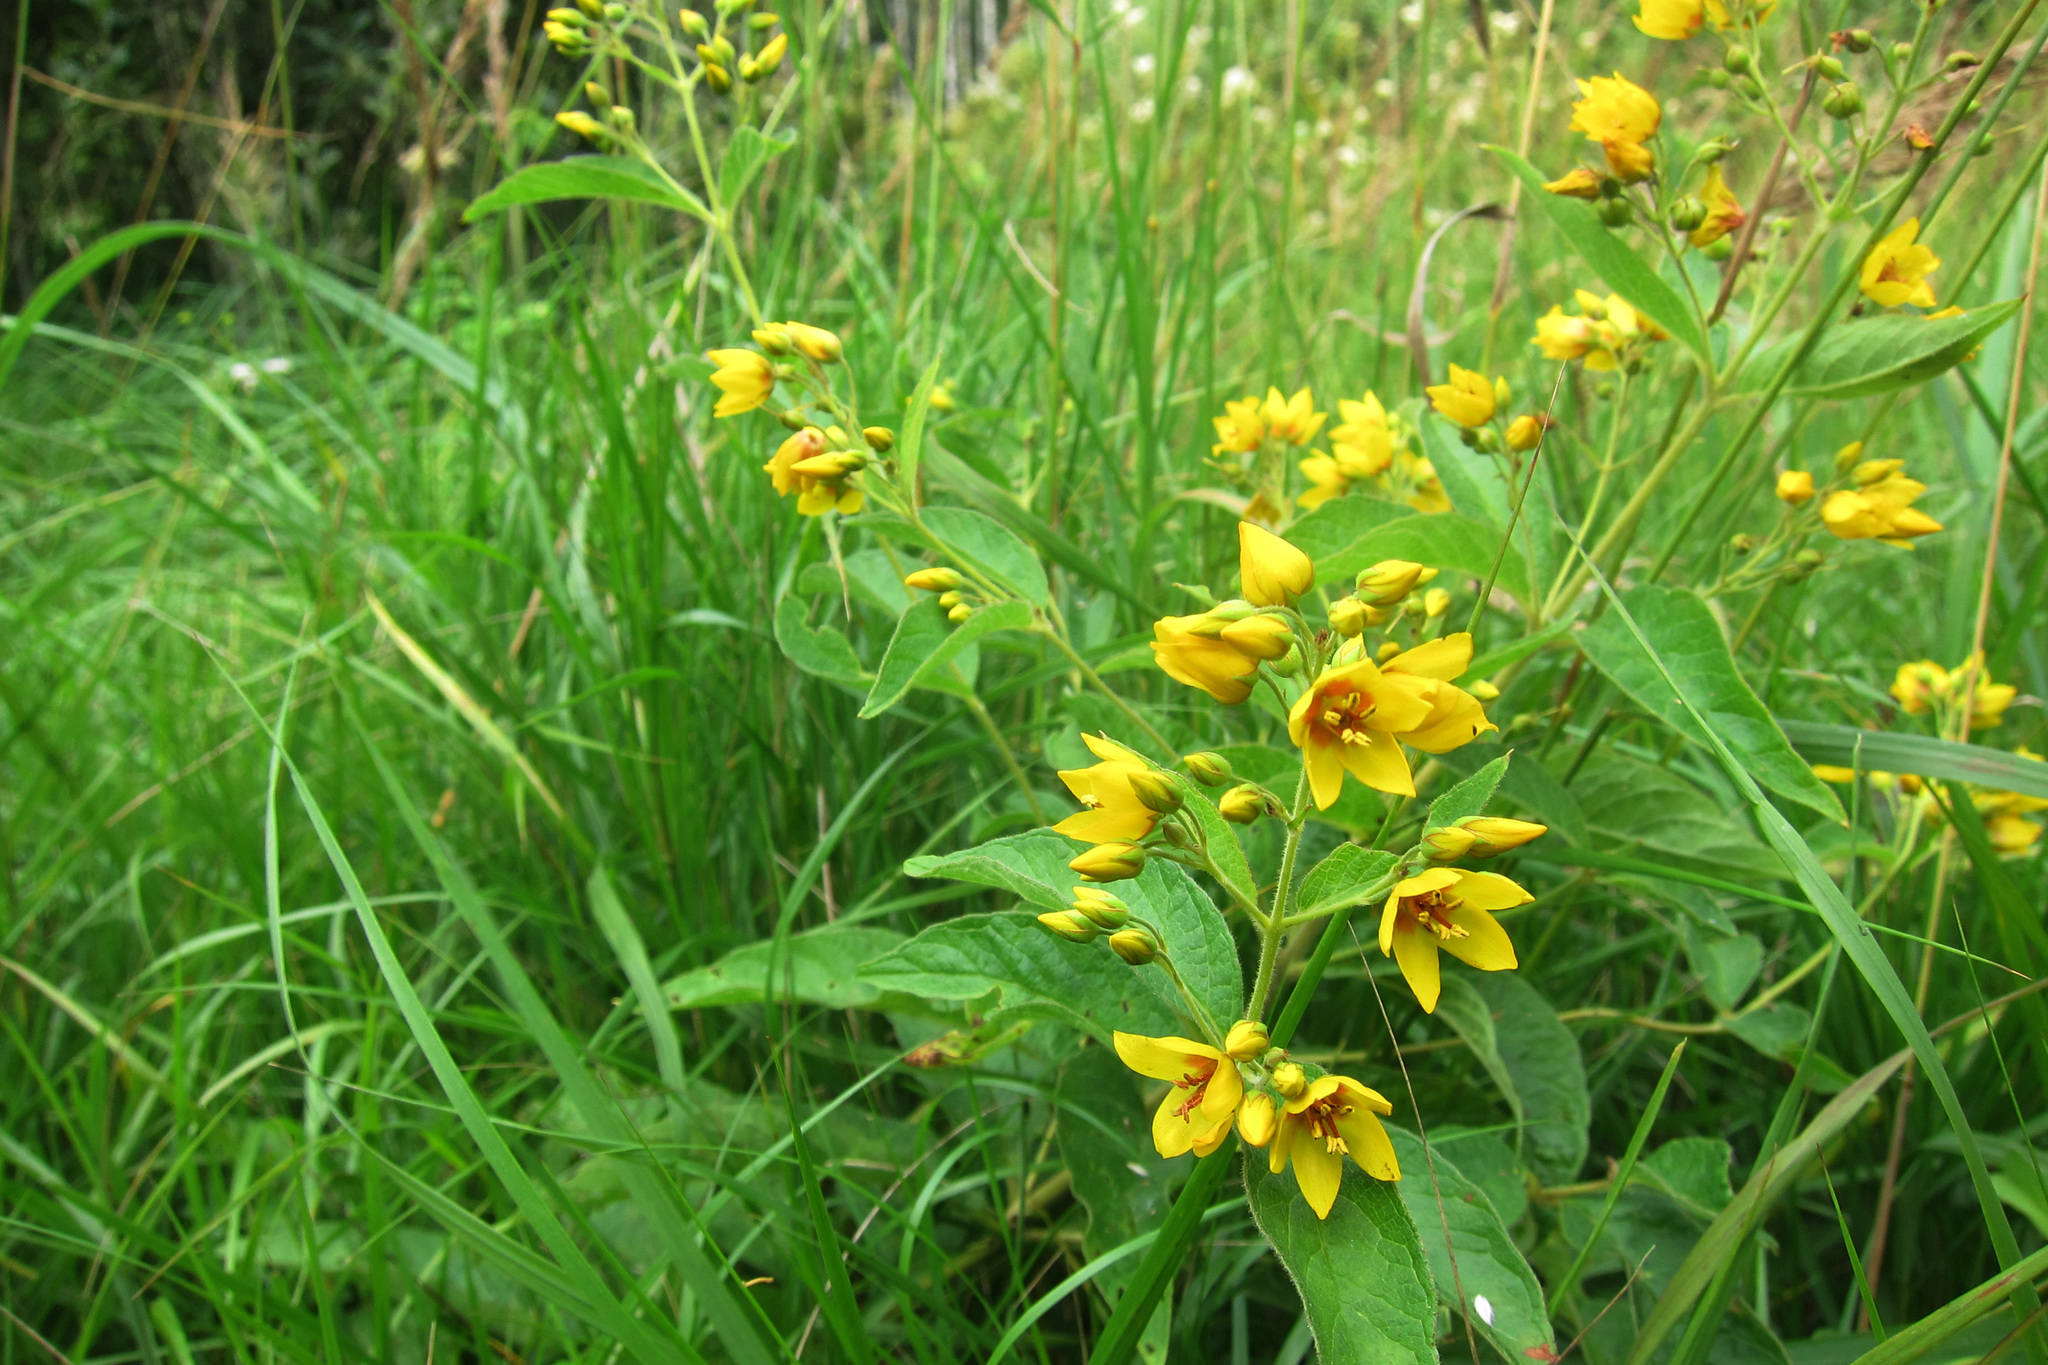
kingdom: Plantae
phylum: Tracheophyta
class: Magnoliopsida
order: Ericales
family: Primulaceae
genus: Lysimachia
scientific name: Lysimachia vulgaris
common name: Yellow loosestrife
